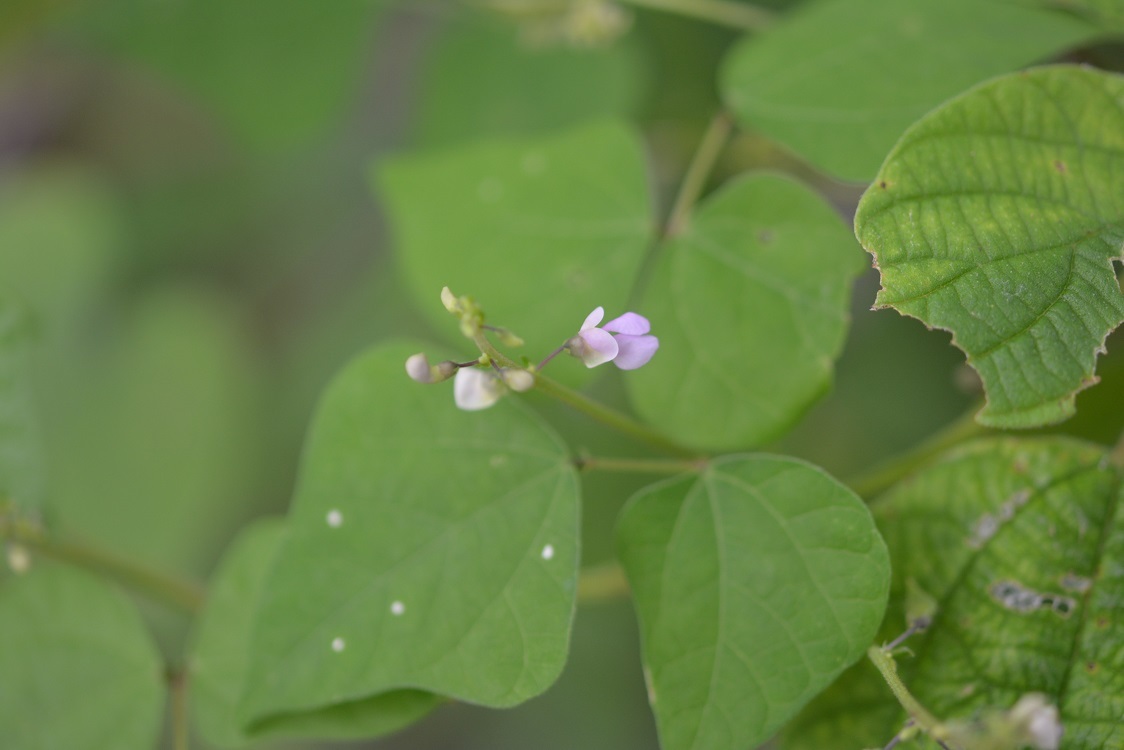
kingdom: Plantae
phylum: Tracheophyta
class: Magnoliopsida
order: Fabales
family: Fabaceae
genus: Phaseolus
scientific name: Phaseolus microcarpus
